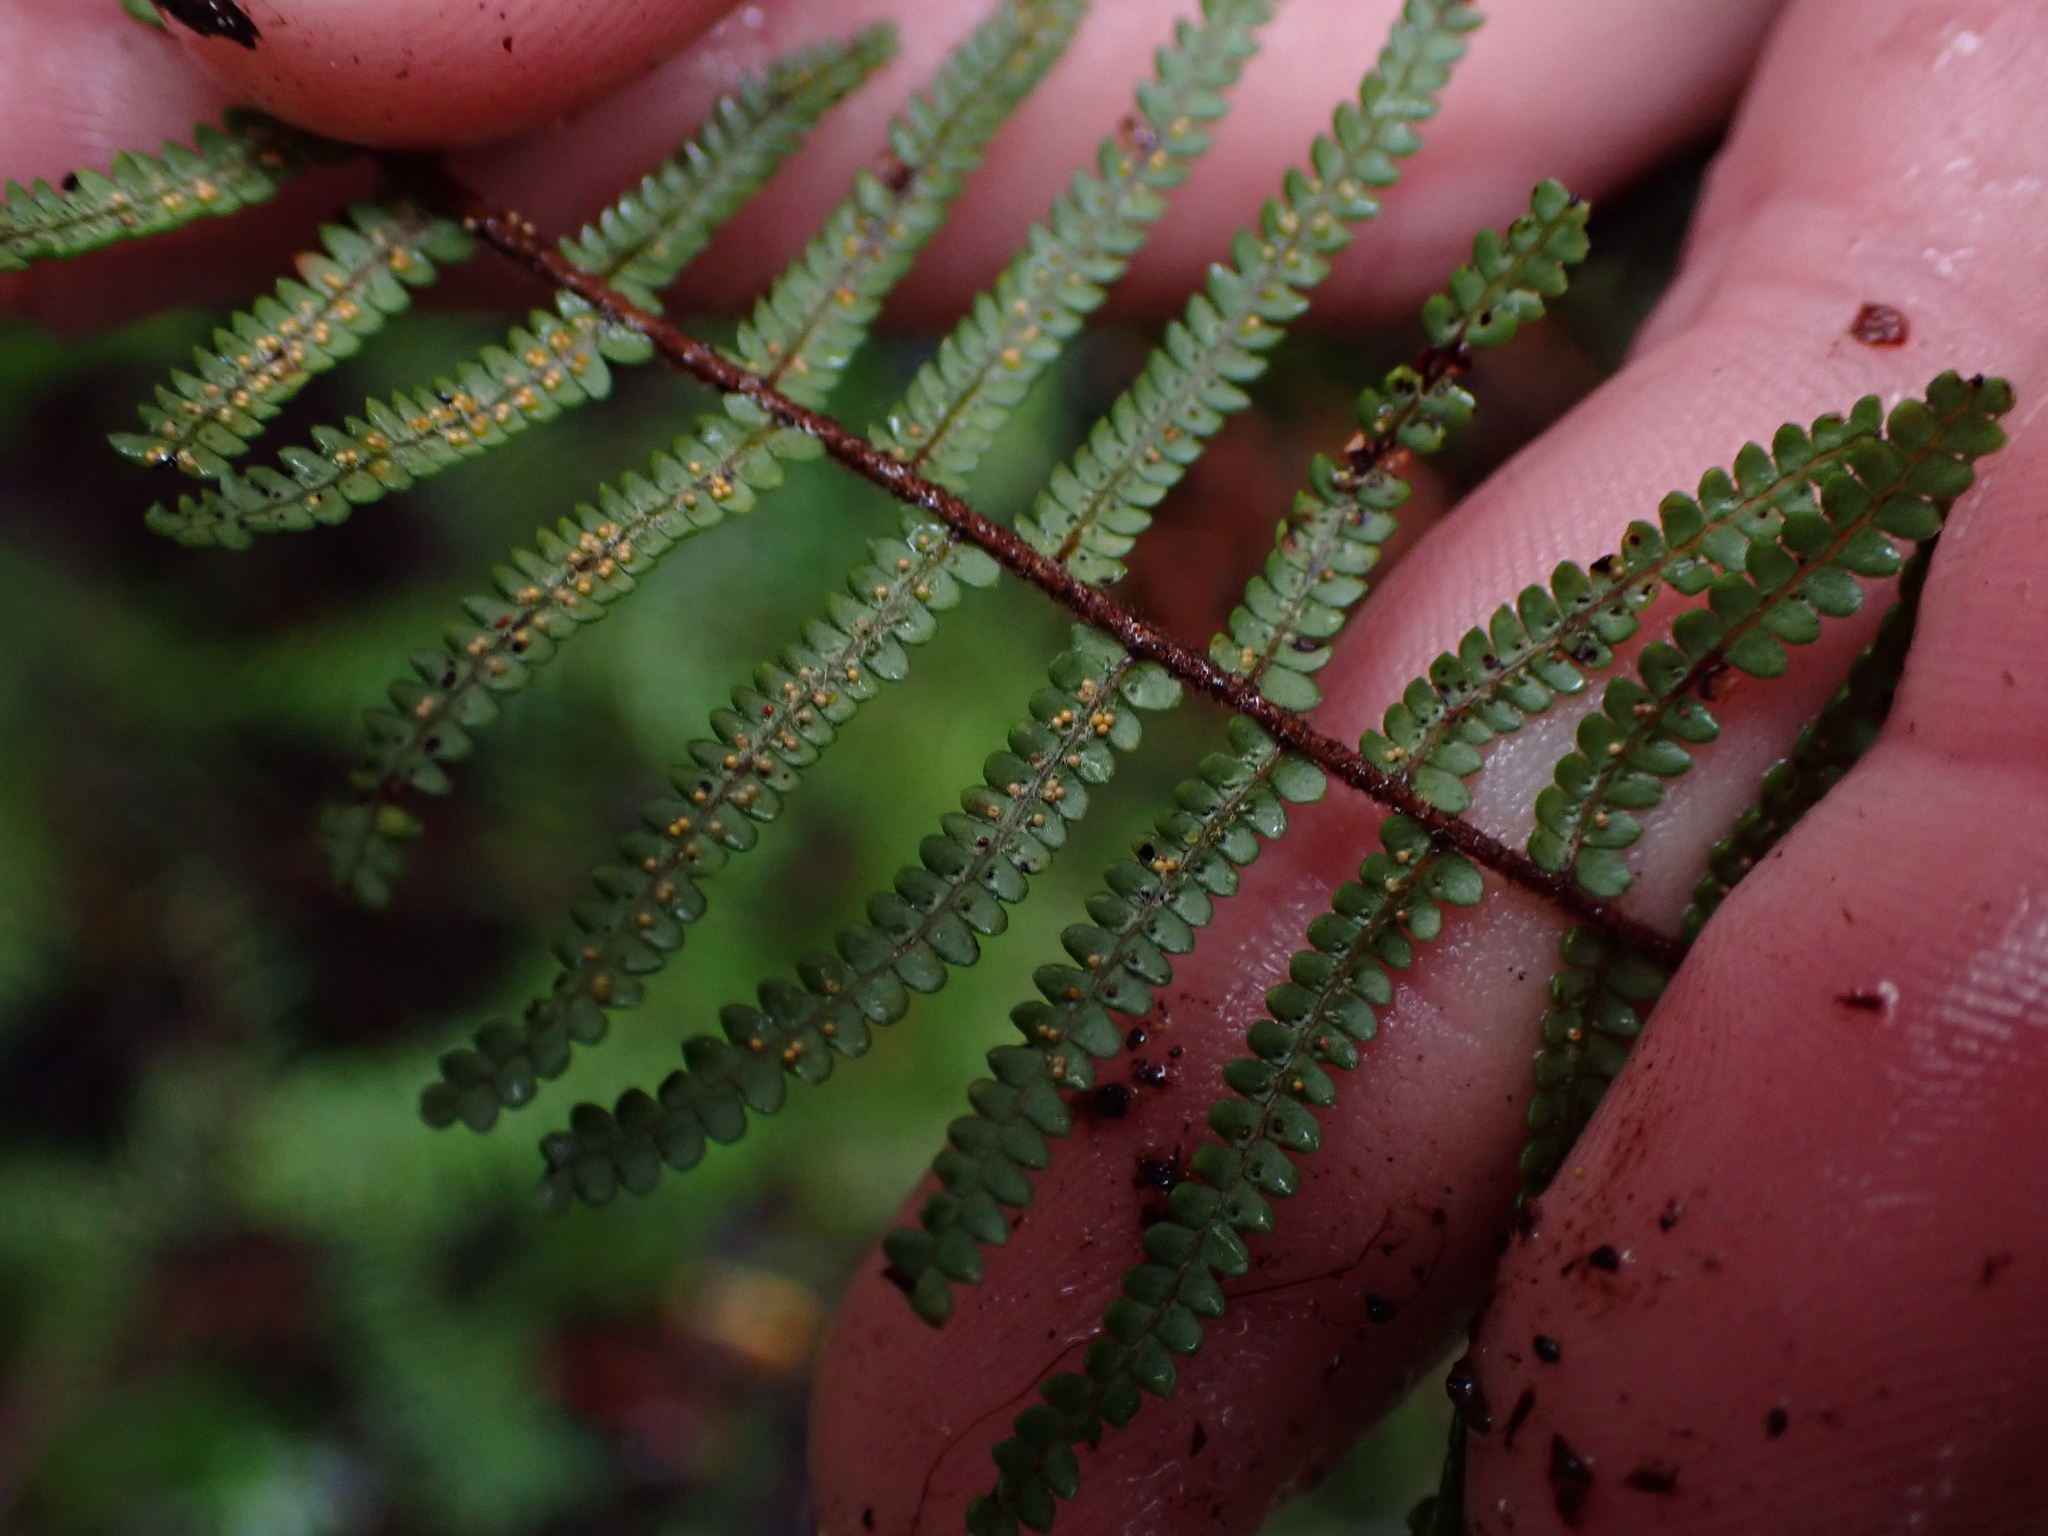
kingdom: Plantae
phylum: Tracheophyta
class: Polypodiopsida
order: Gleicheniales
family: Gleicheniaceae
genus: Gleichenia
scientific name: Gleichenia microphylla
